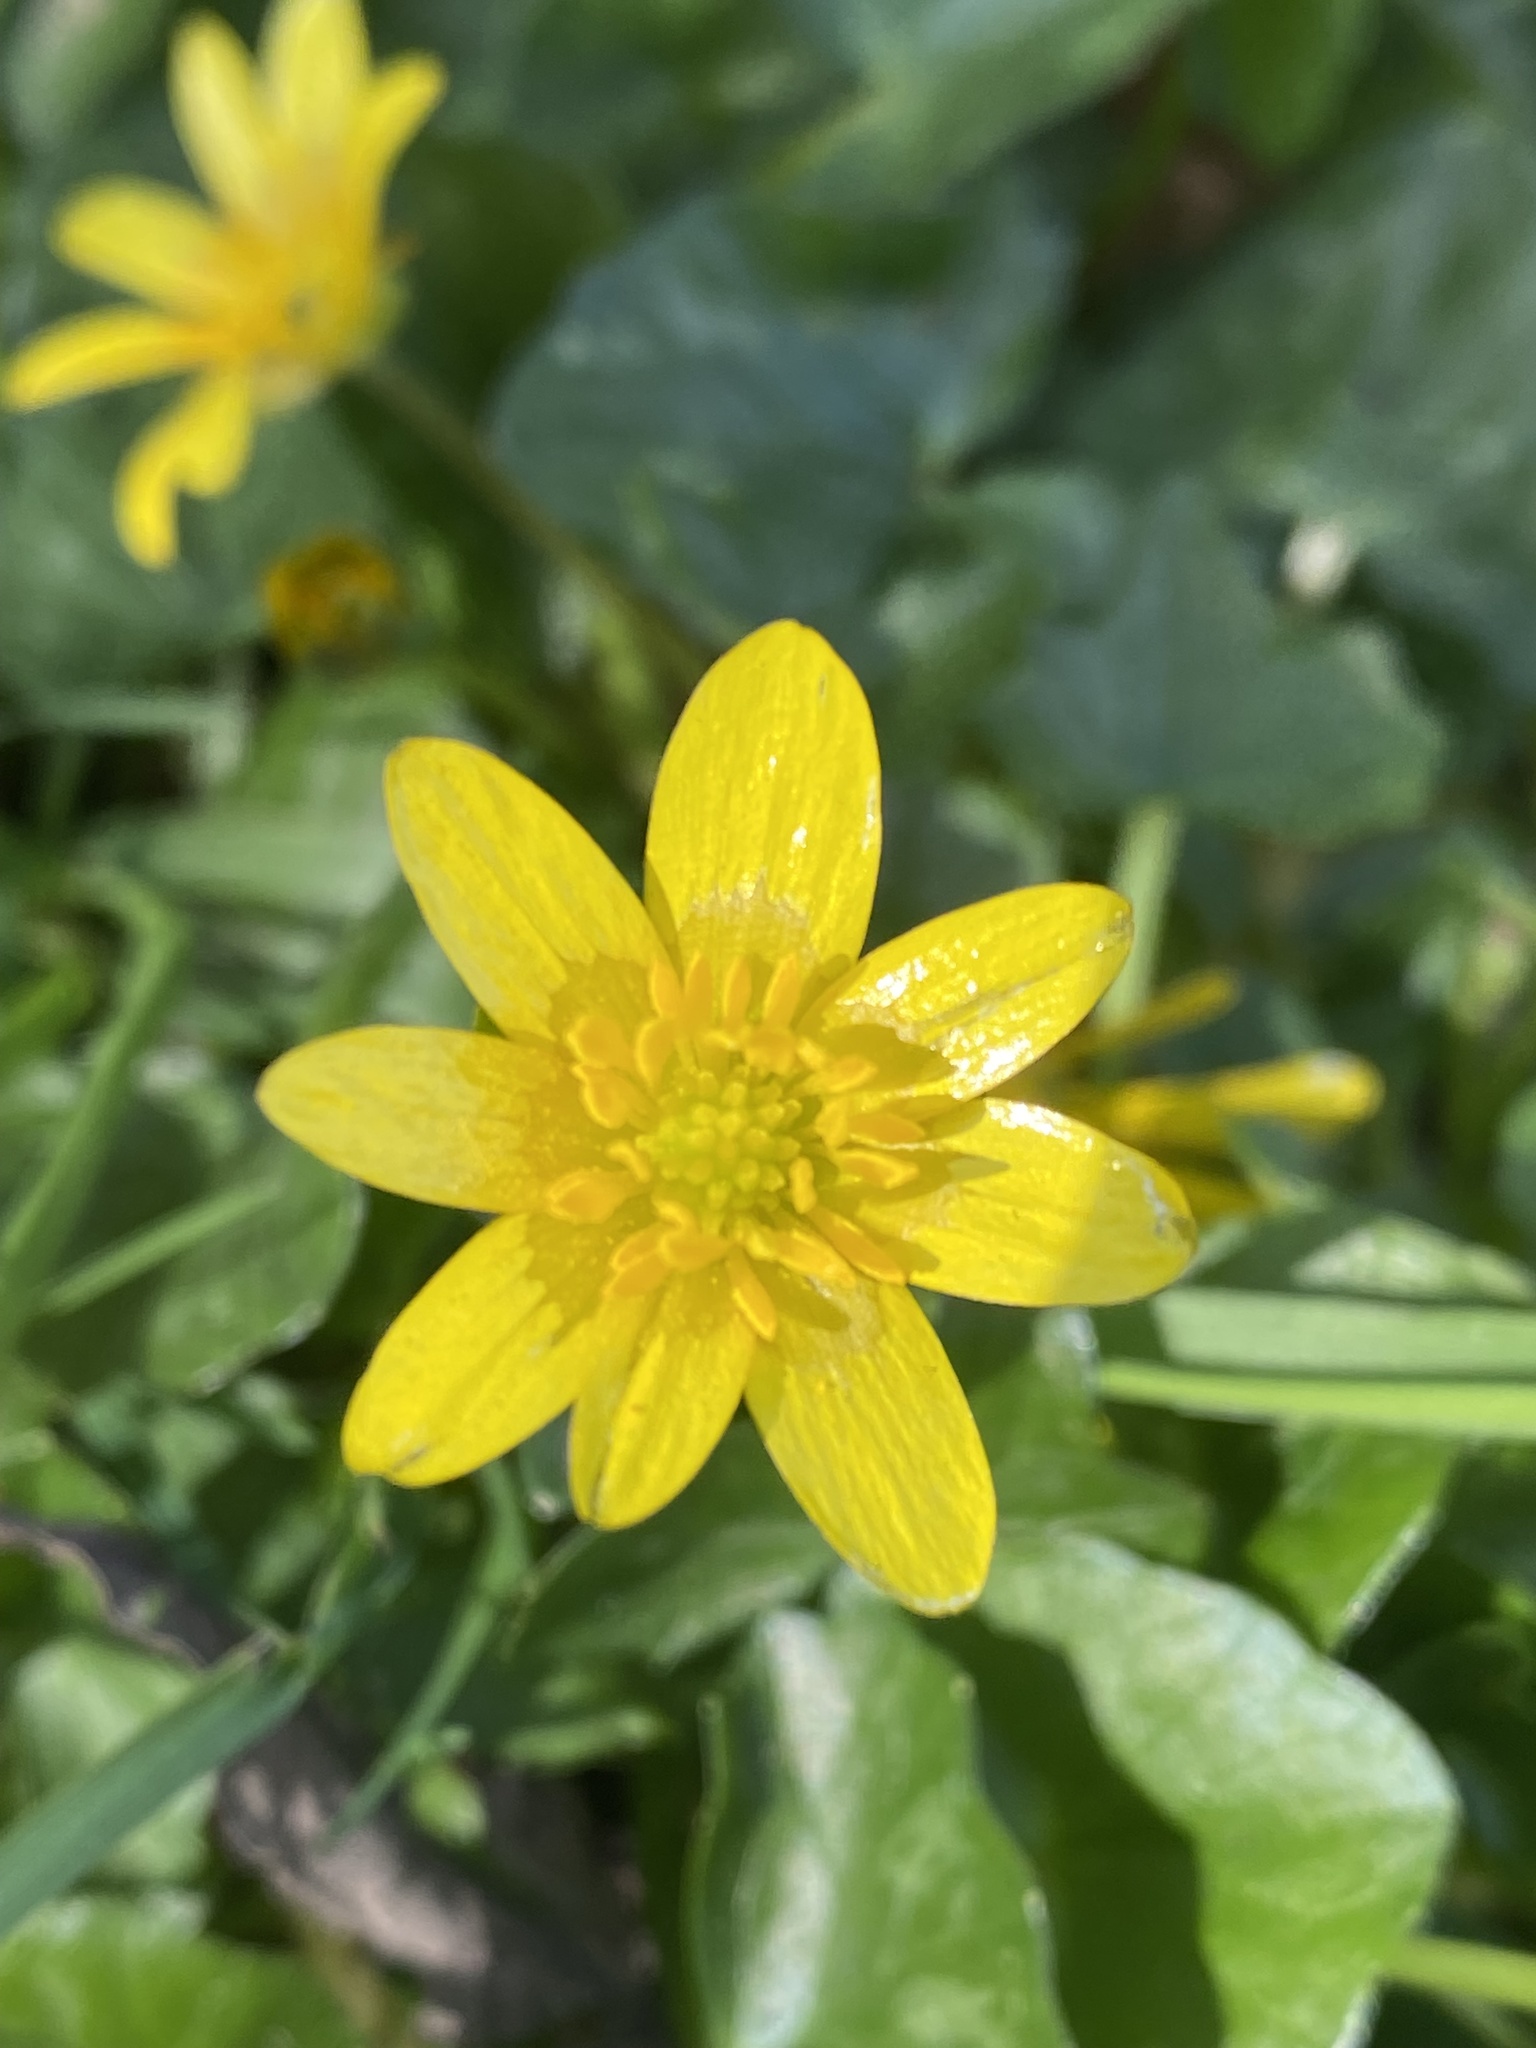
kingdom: Plantae
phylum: Tracheophyta
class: Magnoliopsida
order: Ranunculales
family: Ranunculaceae
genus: Ficaria
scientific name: Ficaria verna
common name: Lesser celandine
